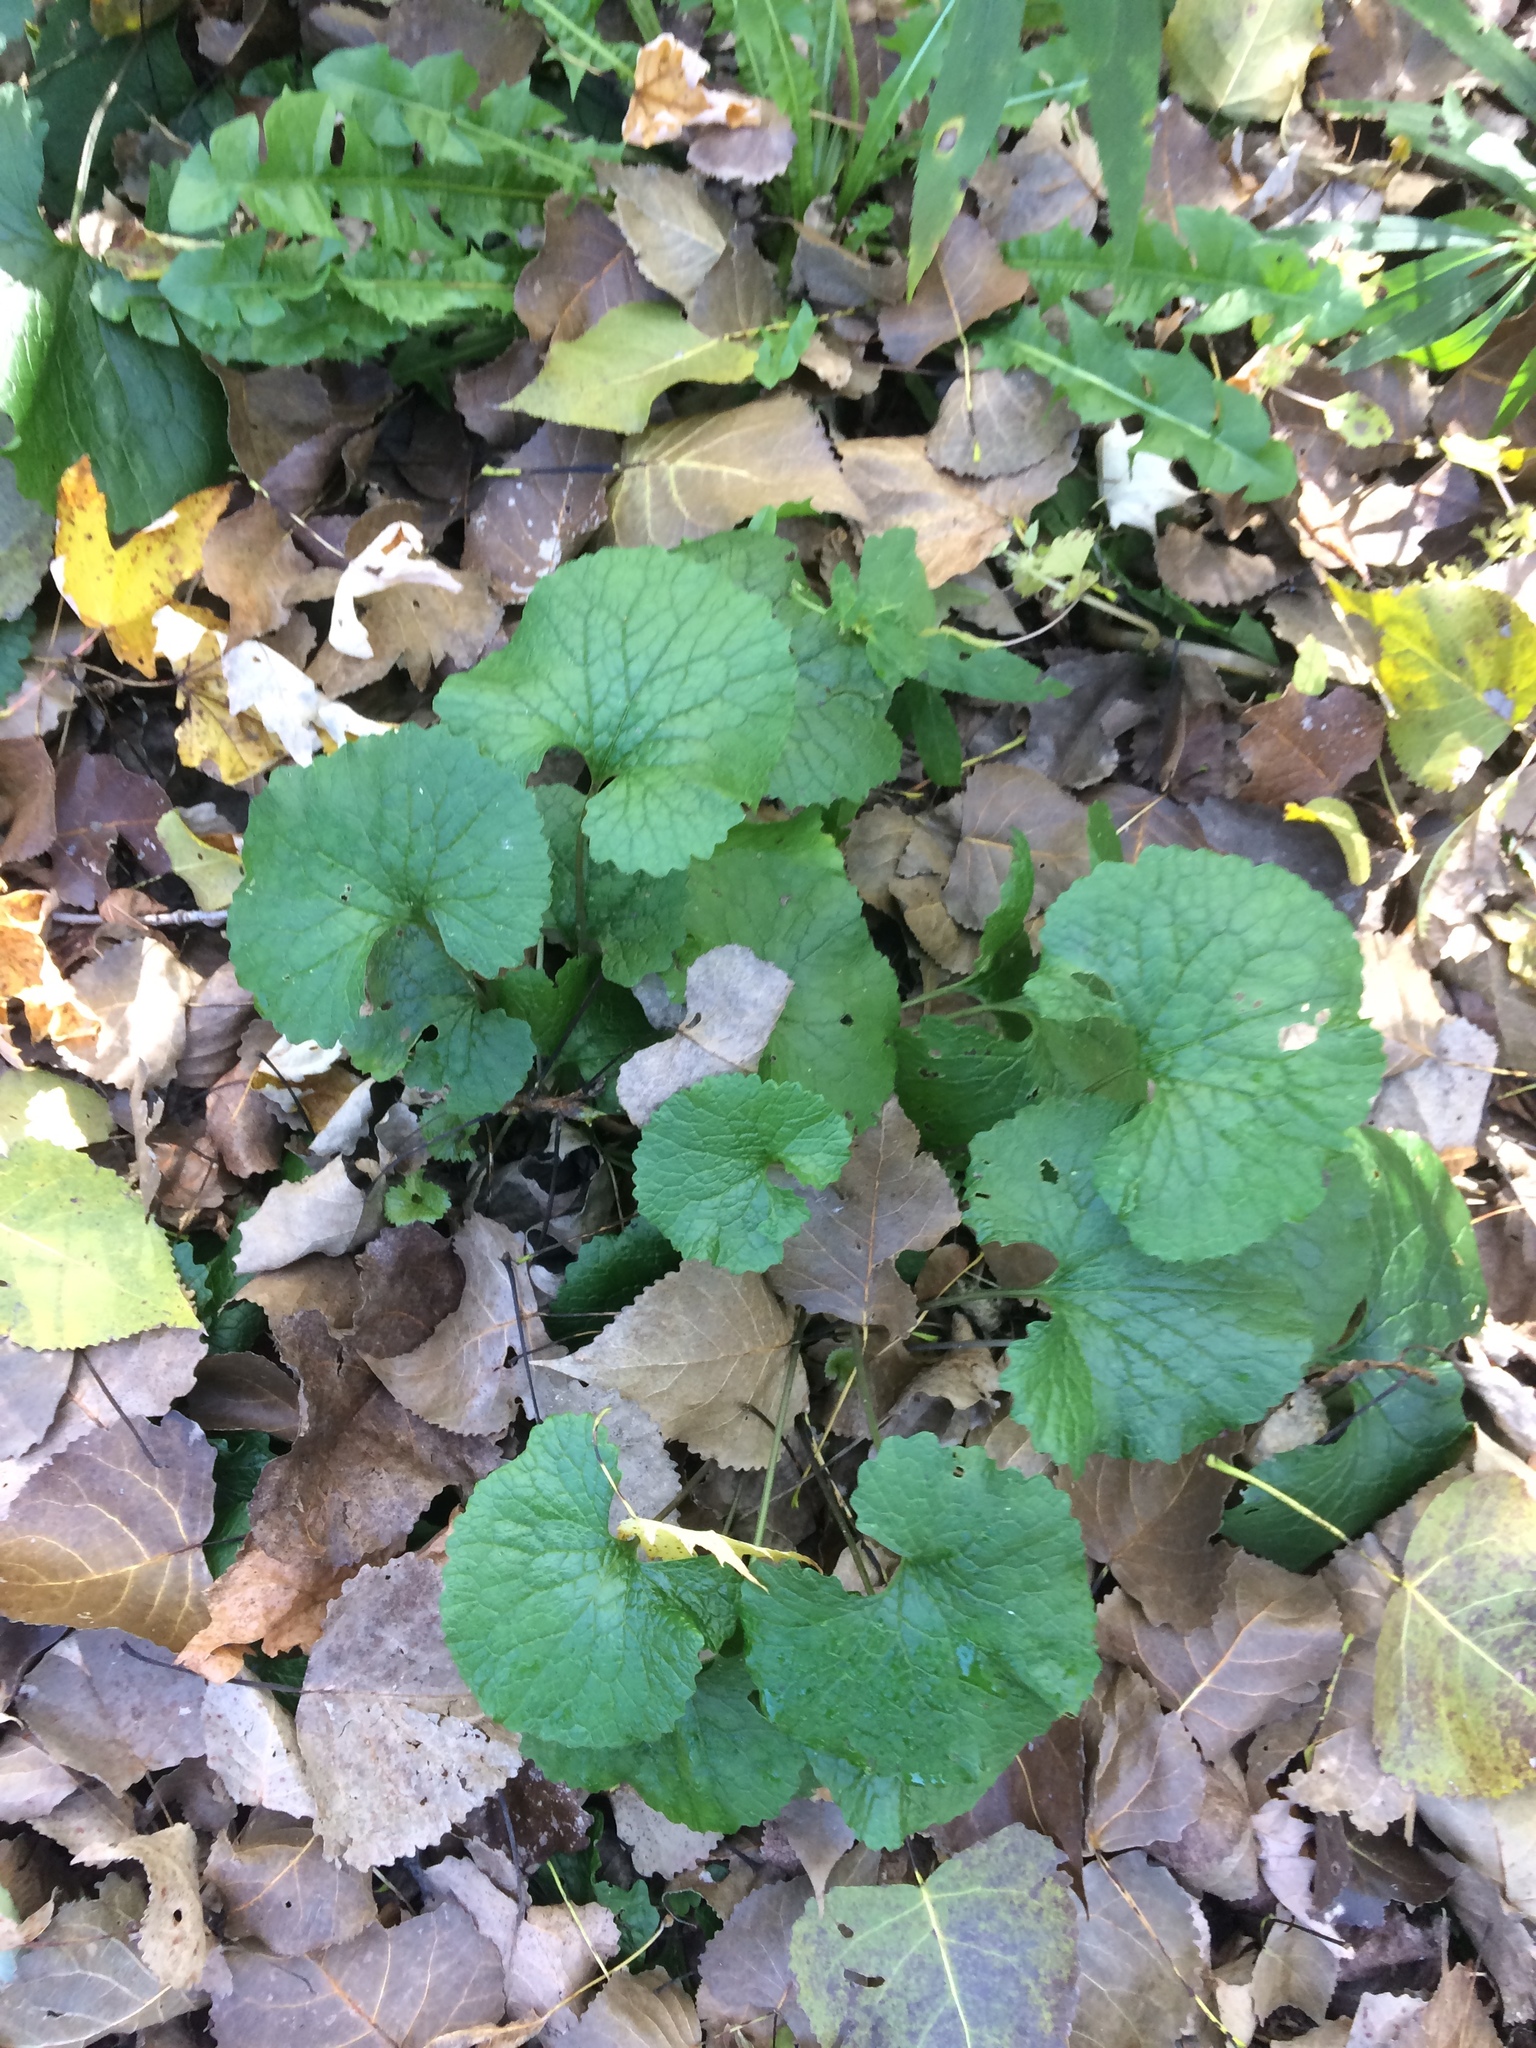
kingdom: Plantae
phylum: Tracheophyta
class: Magnoliopsida
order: Brassicales
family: Brassicaceae
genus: Alliaria
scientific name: Alliaria petiolata
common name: Garlic mustard
